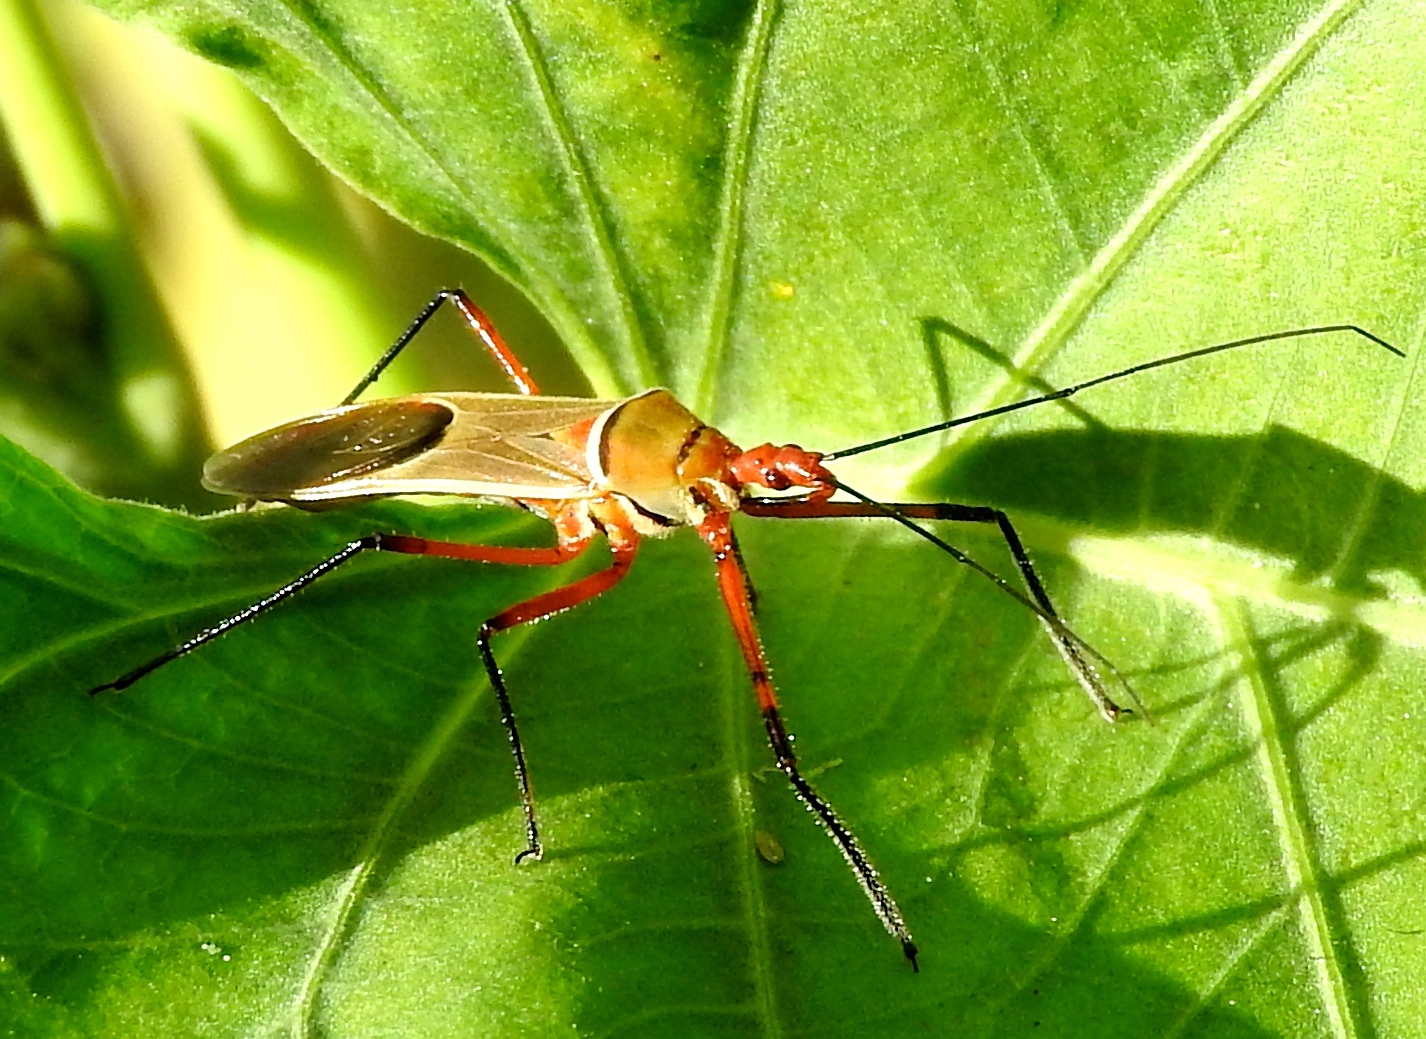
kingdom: Animalia
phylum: Arthropoda
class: Insecta
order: Hemiptera
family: Reduviidae
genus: Zelus
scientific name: Zelus grassans
